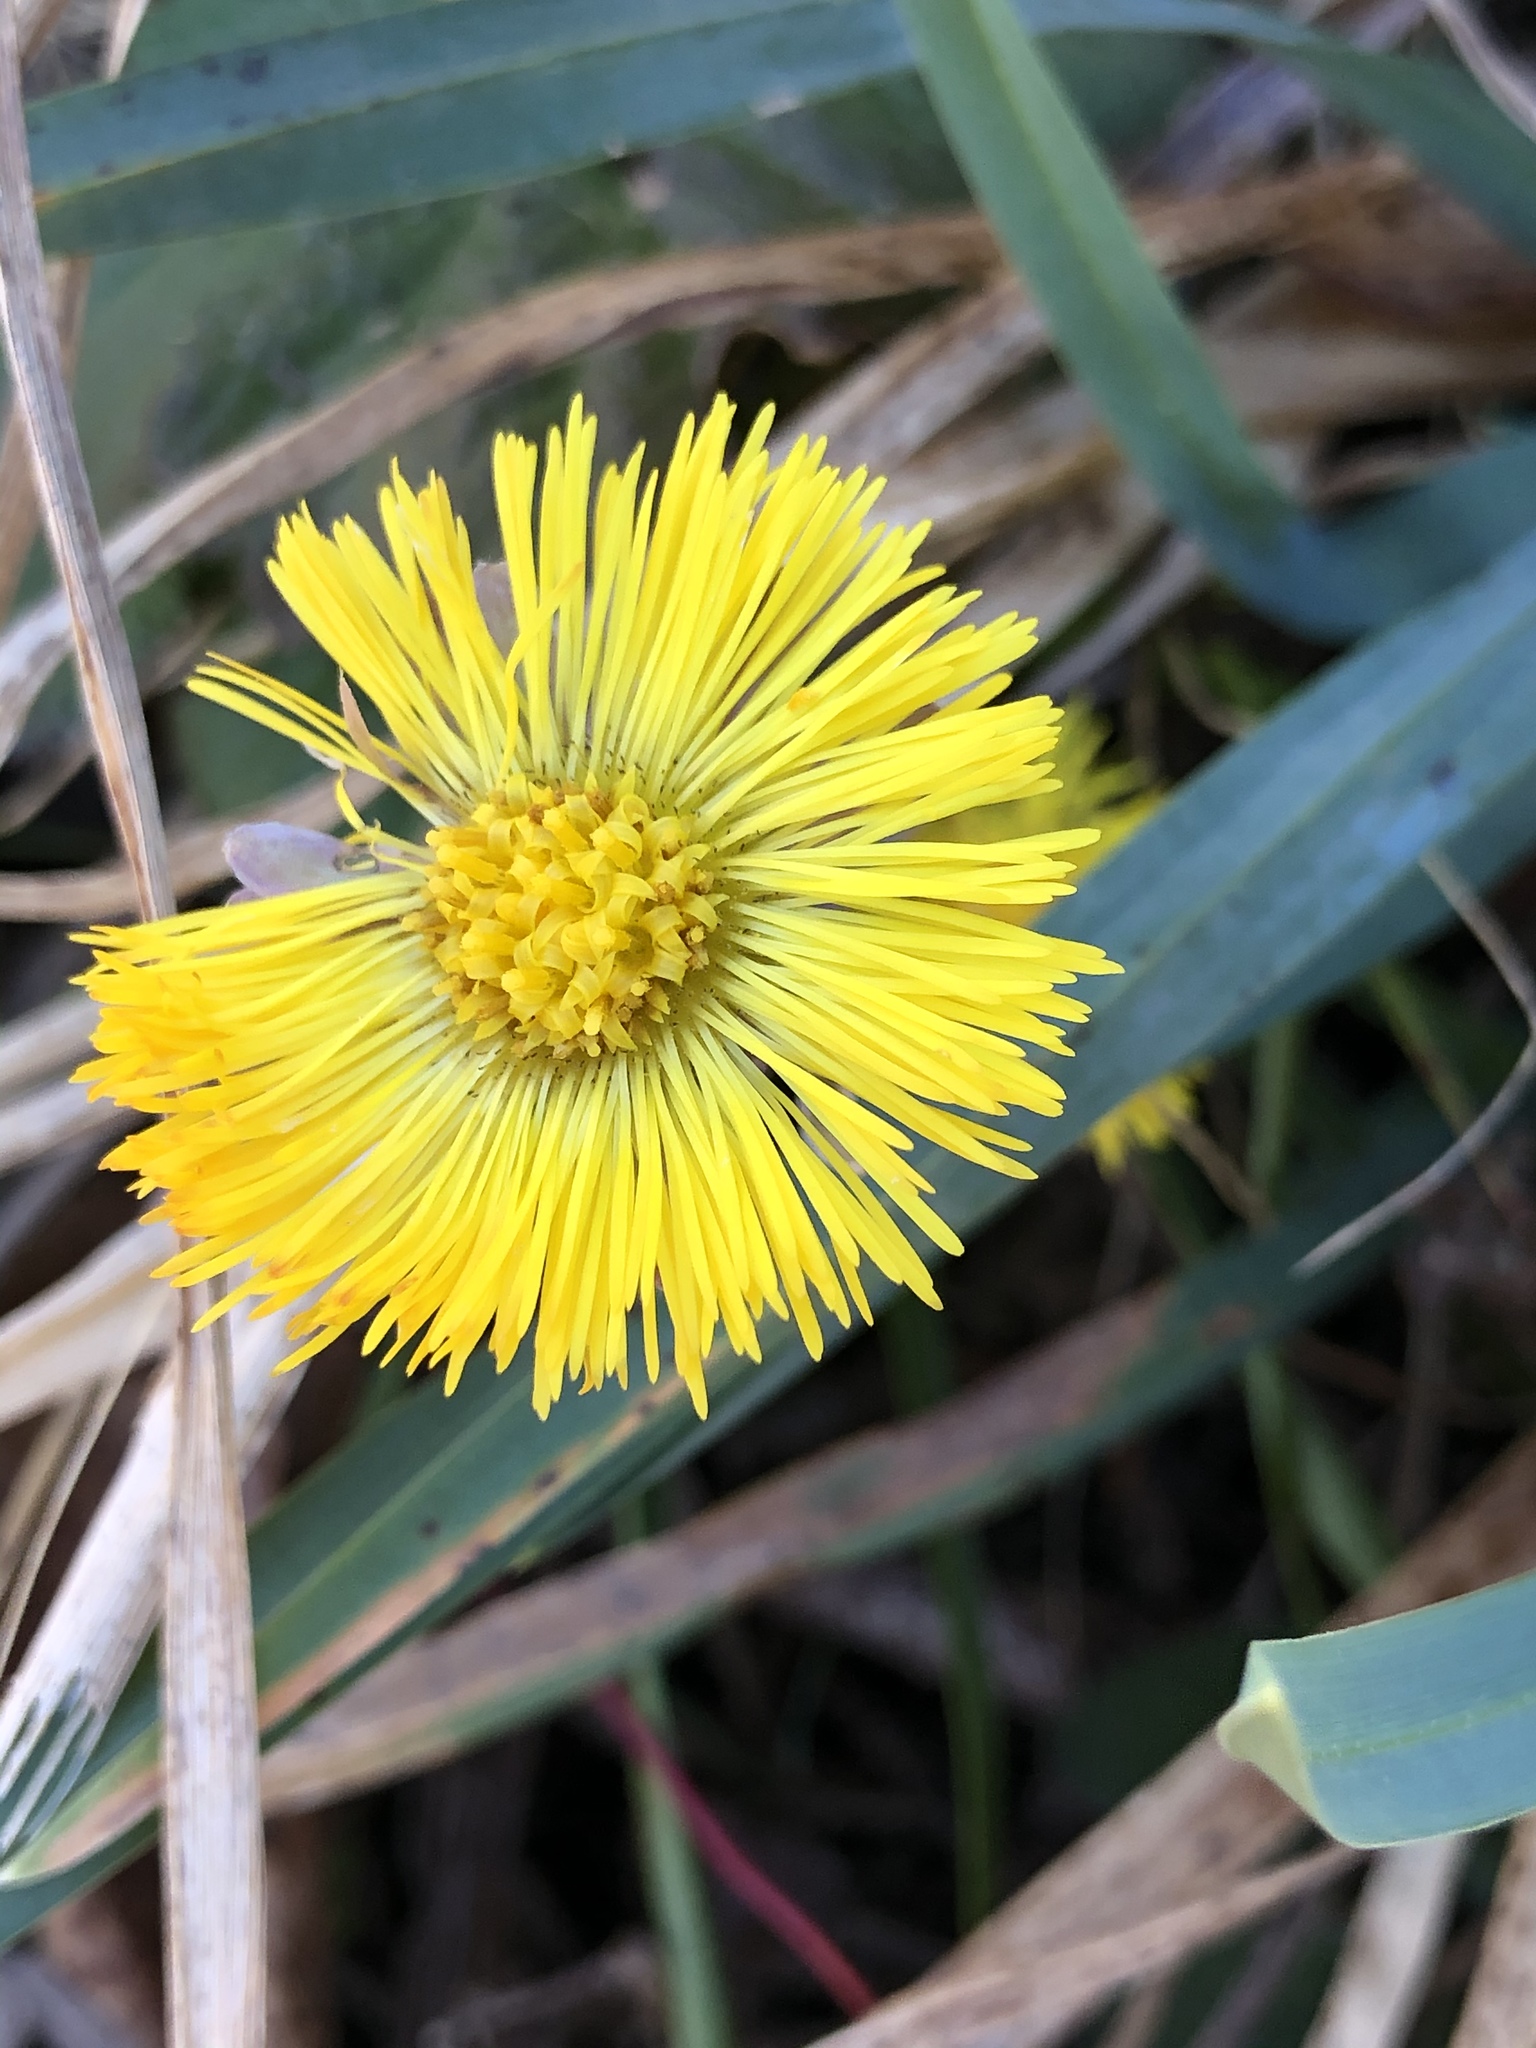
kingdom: Plantae
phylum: Tracheophyta
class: Magnoliopsida
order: Asterales
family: Asteraceae
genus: Tussilago
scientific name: Tussilago farfara
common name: Coltsfoot
